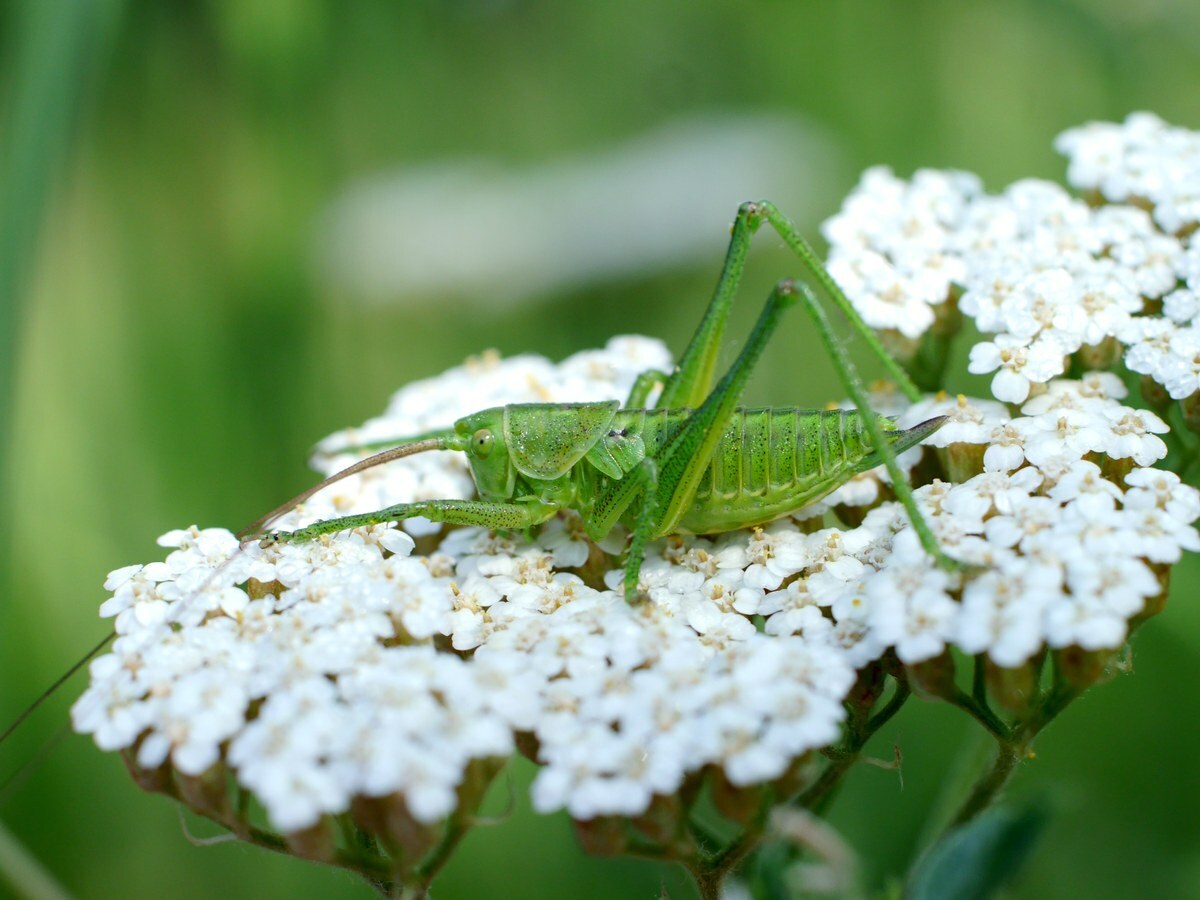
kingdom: Animalia
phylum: Arthropoda
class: Insecta
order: Orthoptera
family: Tettigoniidae
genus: Tettigonia
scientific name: Tettigonia viridissima
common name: Great green bush-cricket
